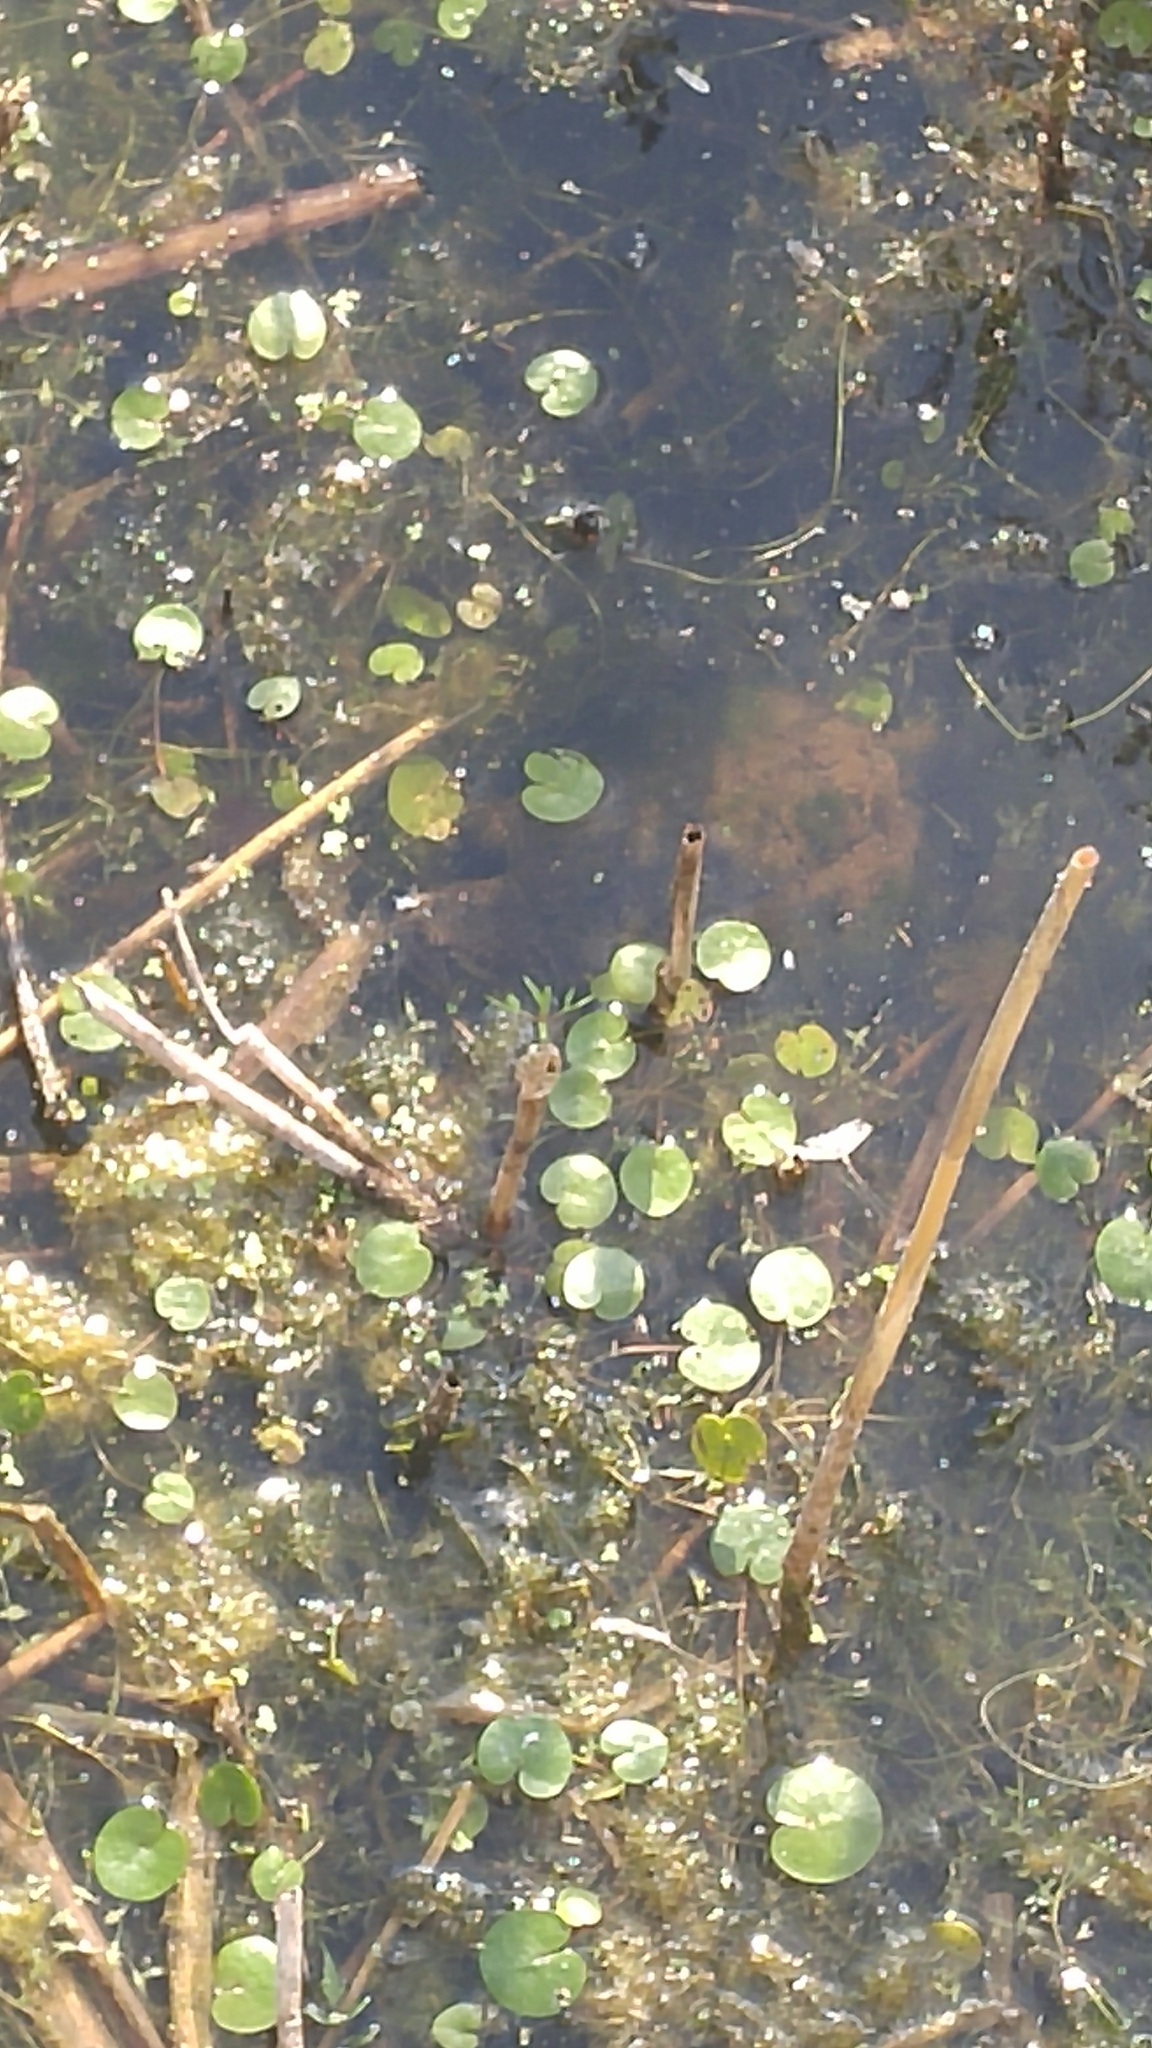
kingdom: Animalia
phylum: Chordata
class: Testudines
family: Chelydridae
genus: Chelydra
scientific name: Chelydra serpentina
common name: Common snapping turtle
